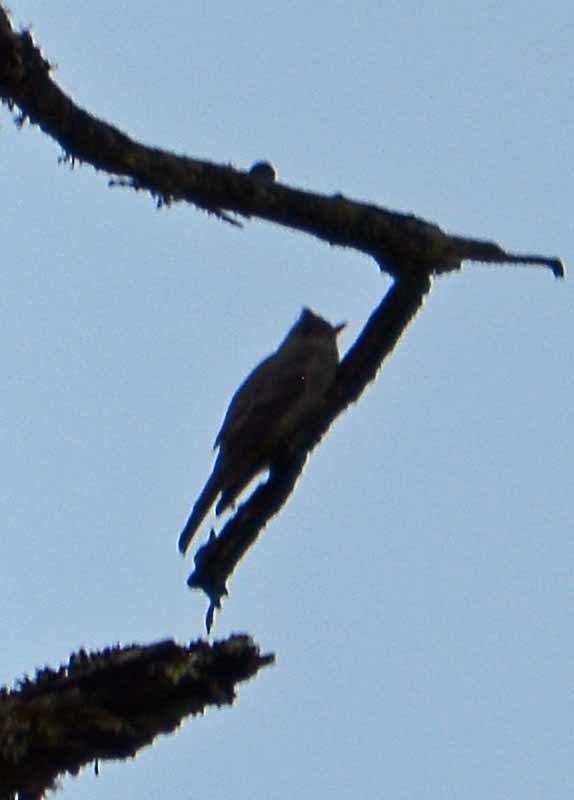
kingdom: Animalia
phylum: Chordata
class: Aves
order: Passeriformes
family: Tyrannidae
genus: Contopus
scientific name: Contopus pertinax
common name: Greater pewee
